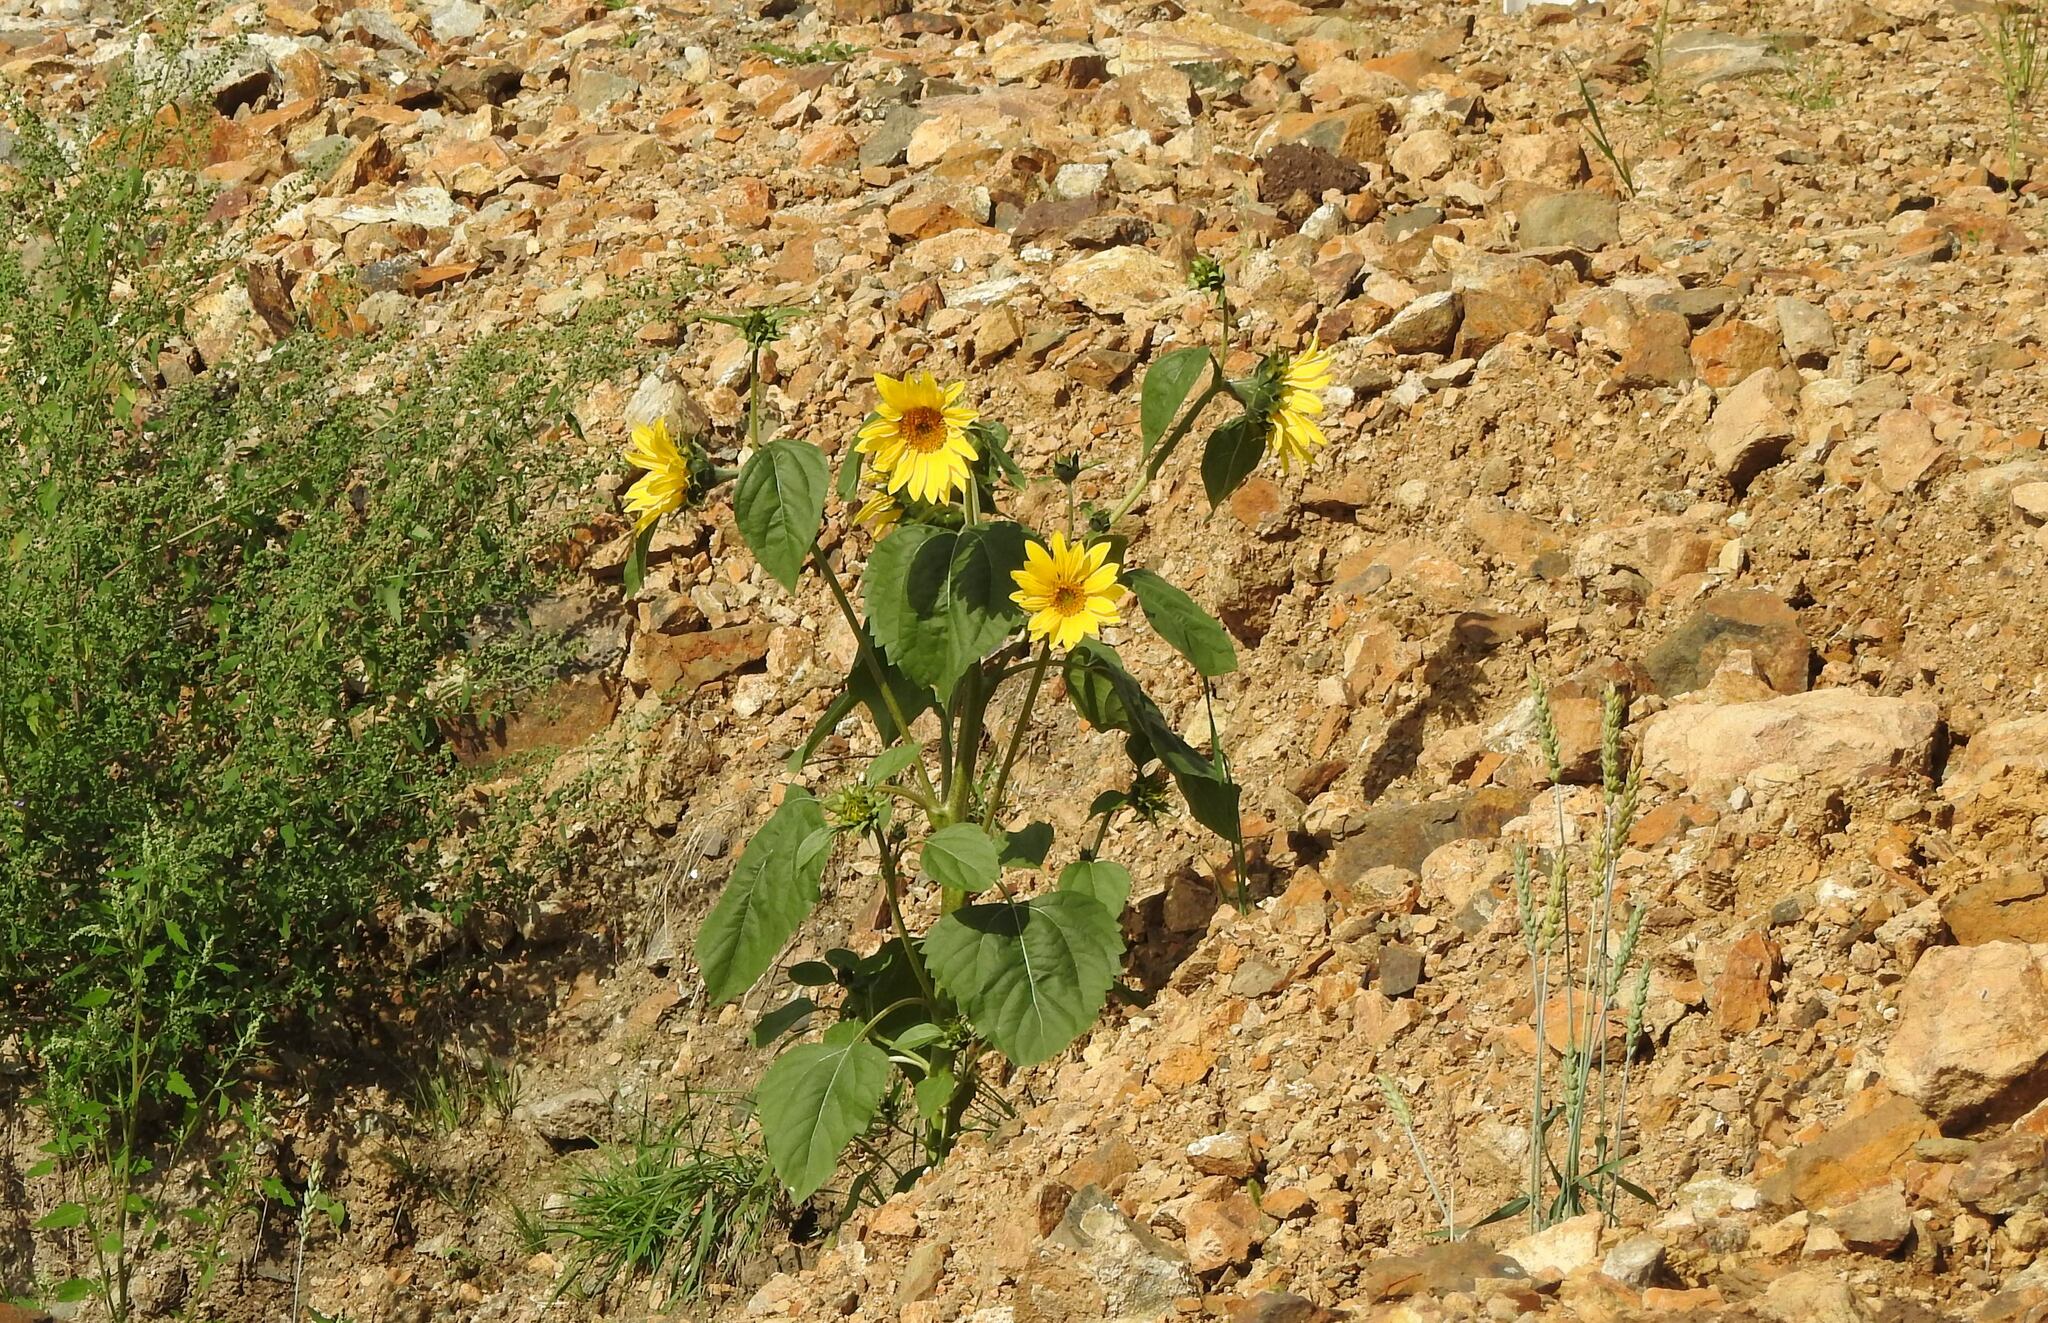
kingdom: Plantae
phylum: Tracheophyta
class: Magnoliopsida
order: Asterales
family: Asteraceae
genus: Helianthus
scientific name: Helianthus annuus
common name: Sunflower
